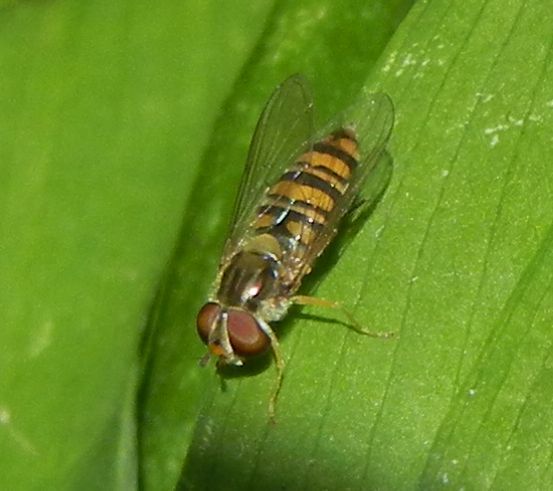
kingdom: Animalia
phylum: Arthropoda
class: Insecta
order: Diptera
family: Syrphidae
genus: Episyrphus
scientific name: Episyrphus balteatus
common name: Marmalade hoverfly
